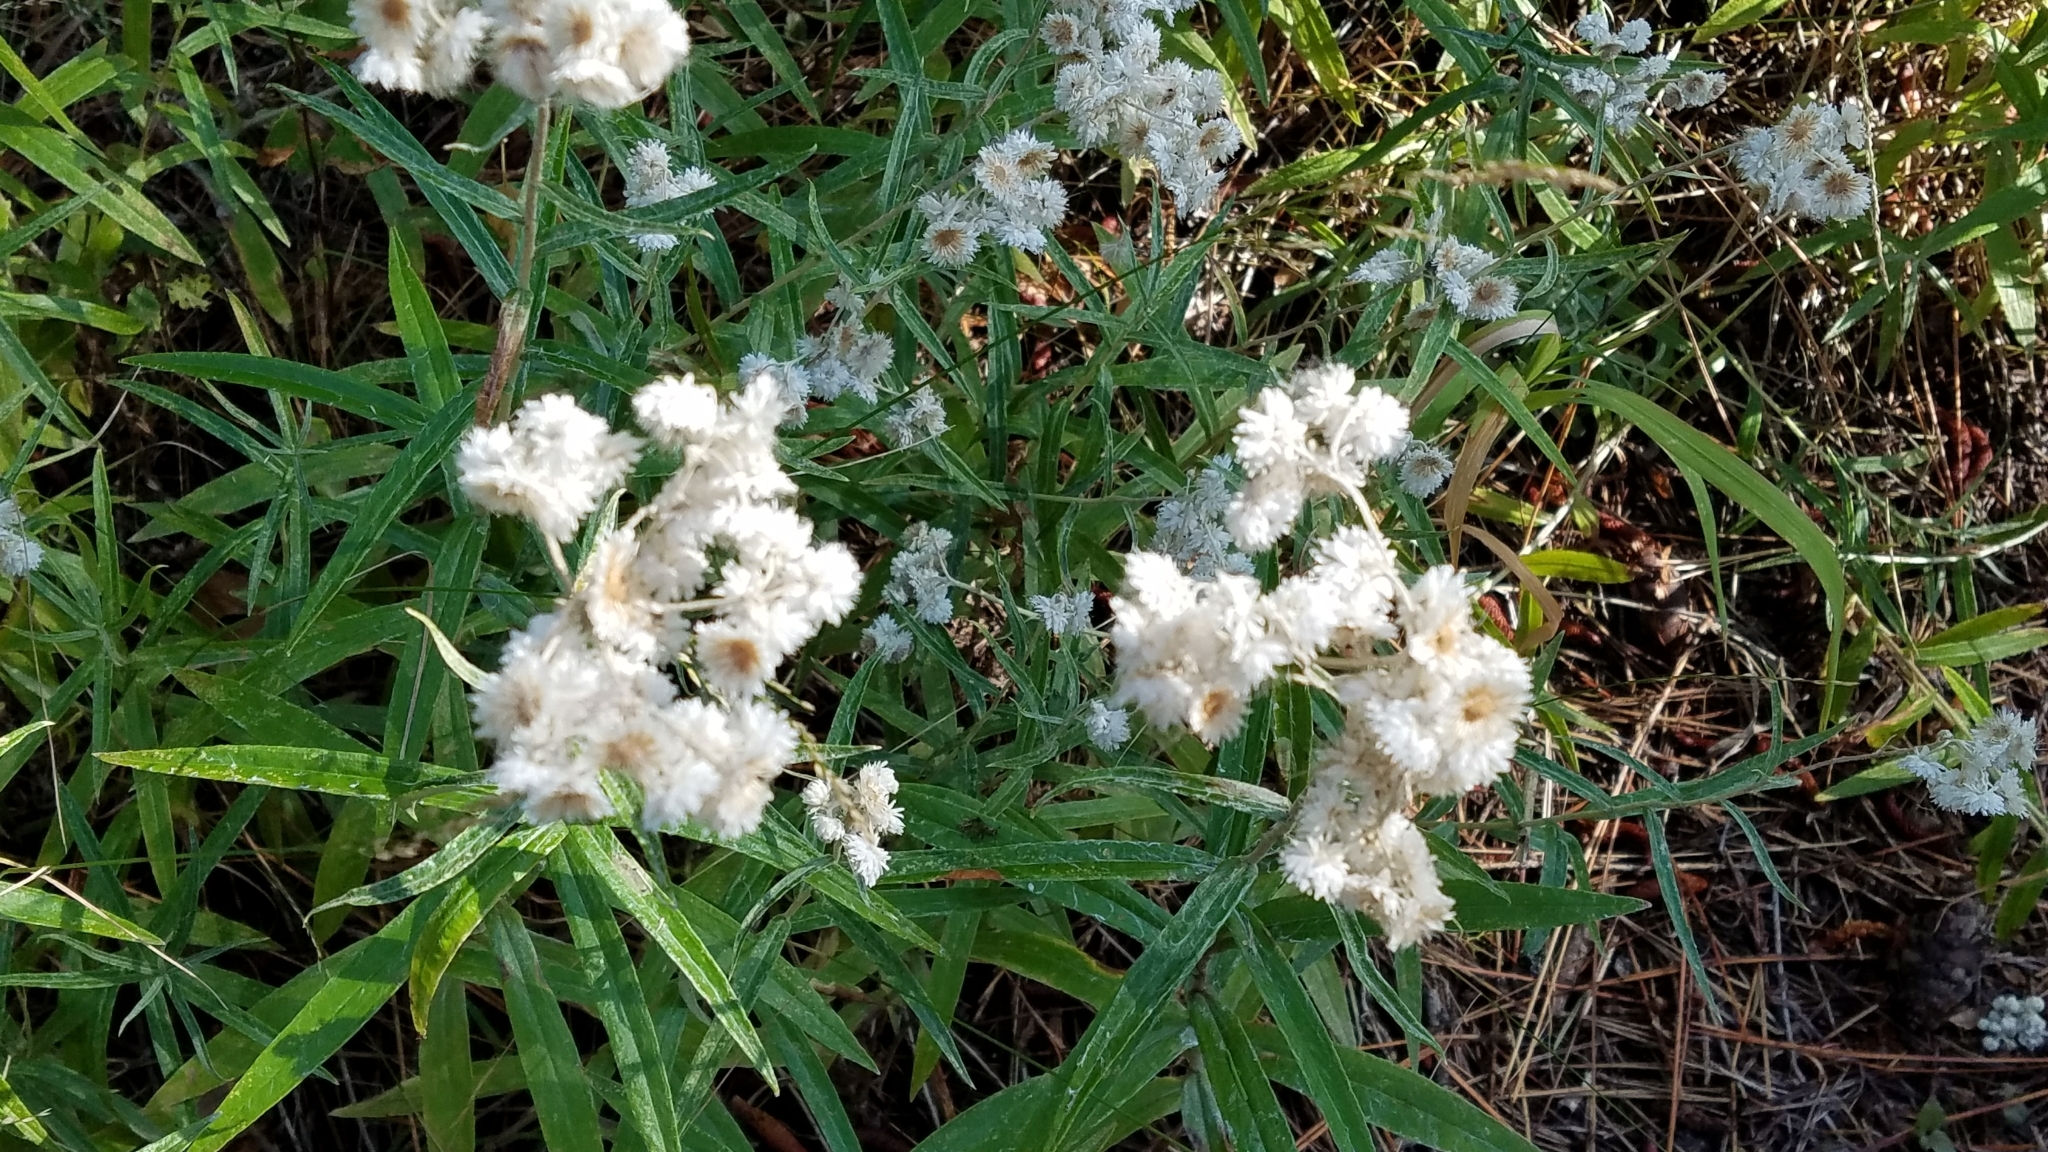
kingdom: Plantae
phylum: Tracheophyta
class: Magnoliopsida
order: Asterales
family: Asteraceae
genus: Anaphalis
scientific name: Anaphalis margaritacea
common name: Pearly everlasting
